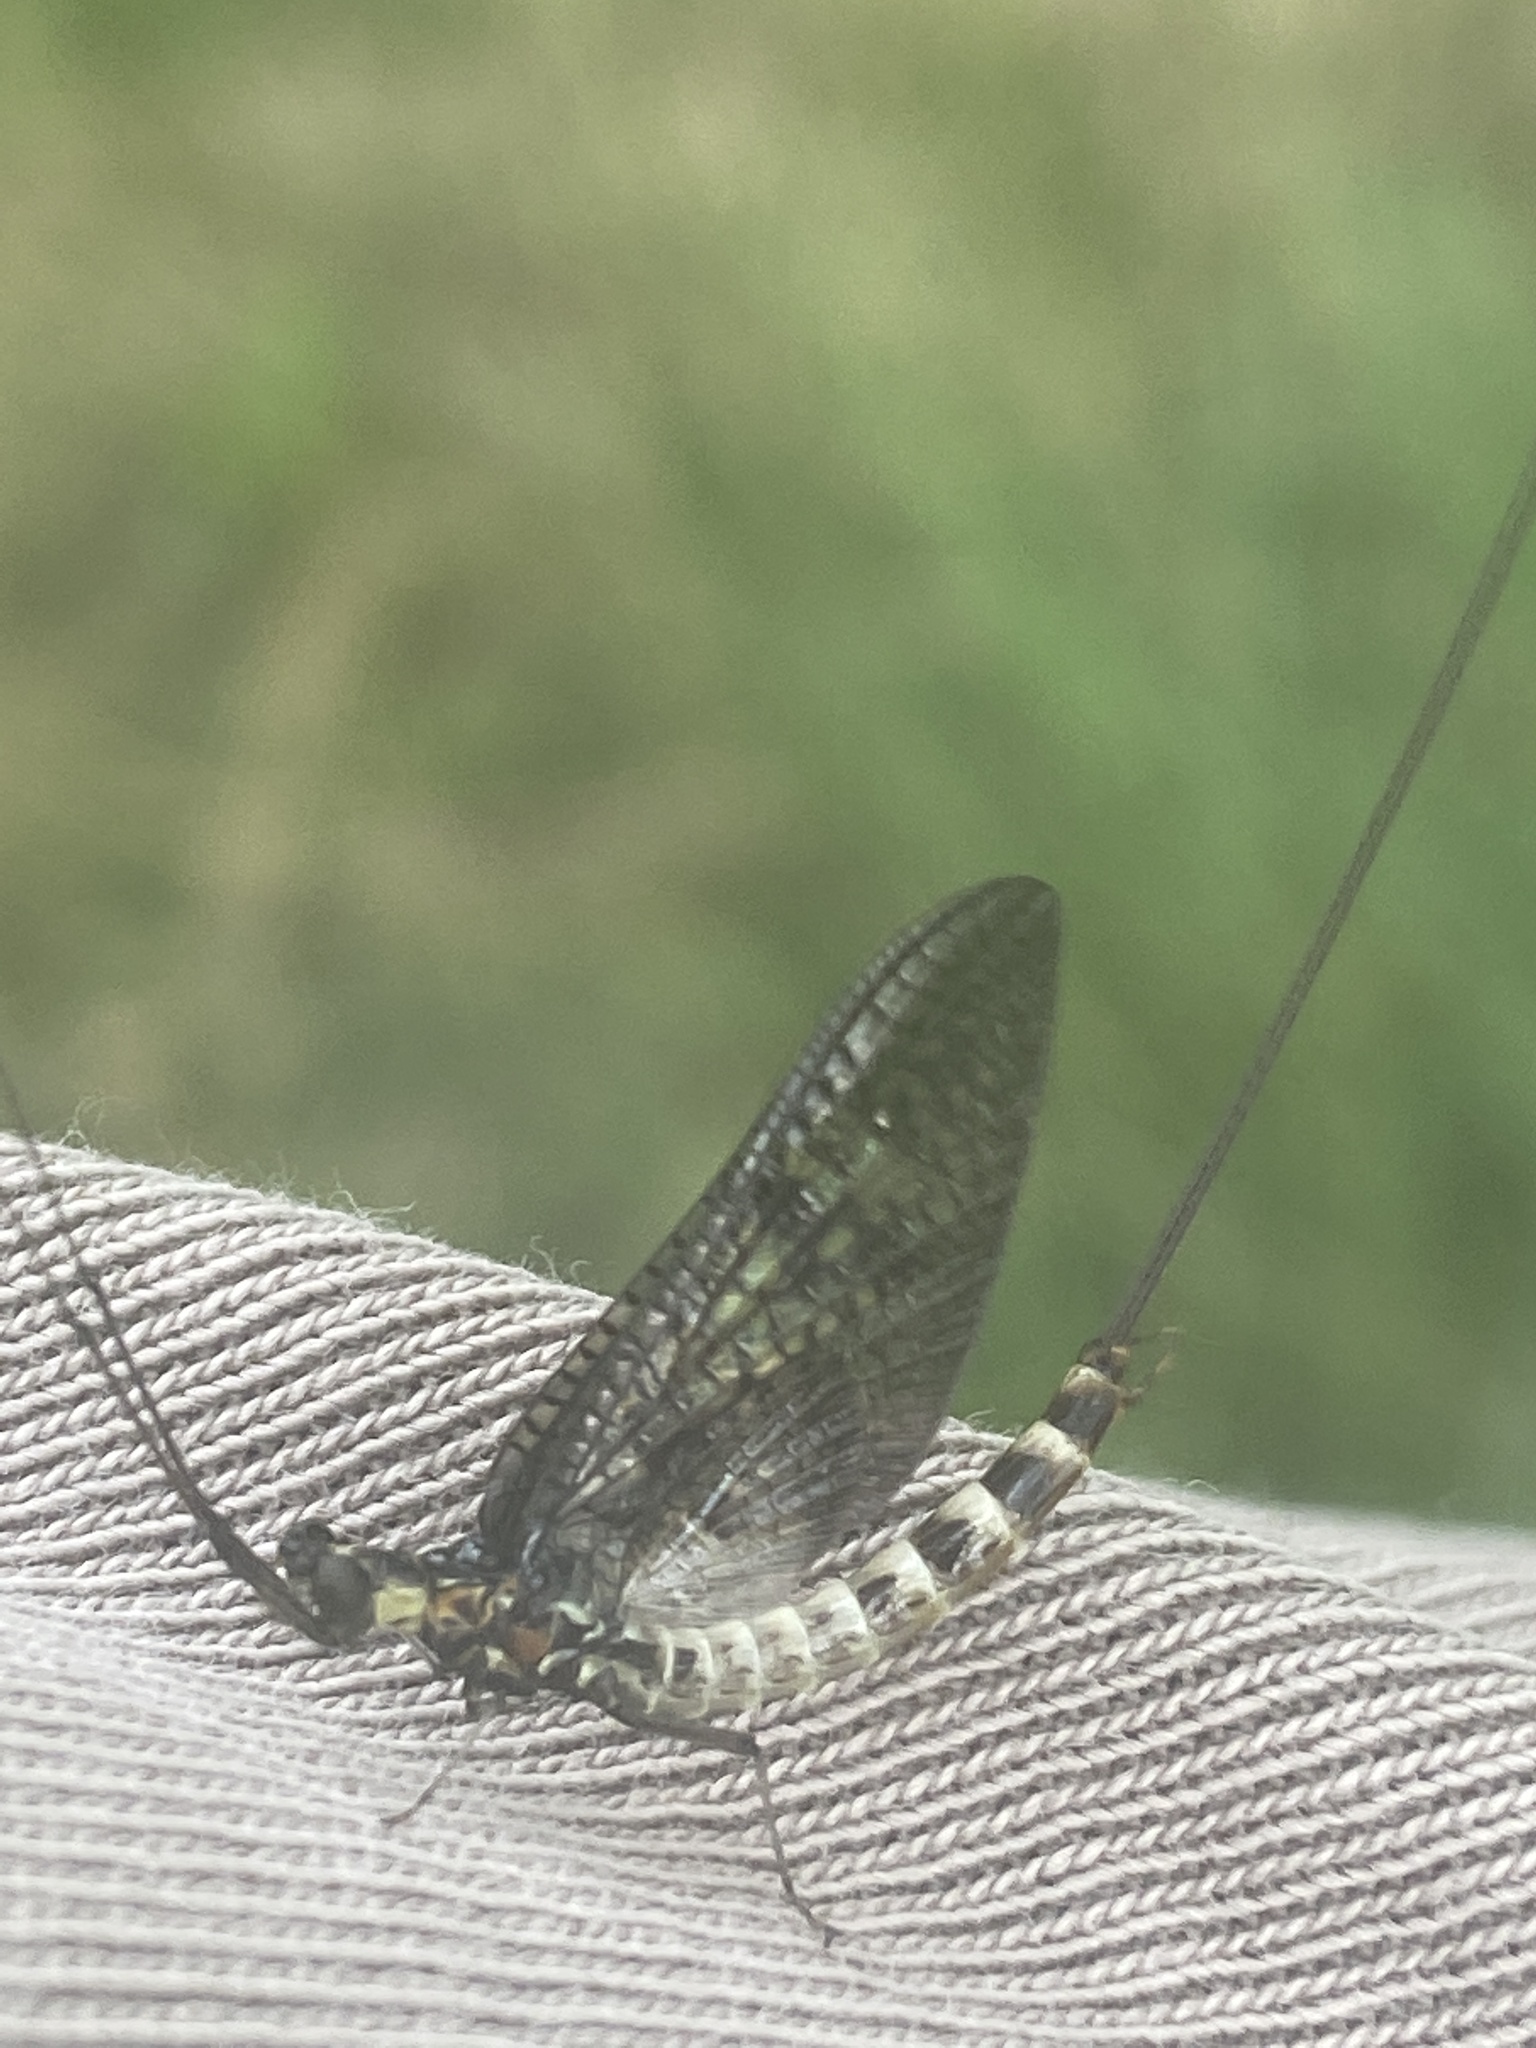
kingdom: Animalia
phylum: Arthropoda
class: Insecta
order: Ephemeroptera
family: Ephemeridae
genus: Ephemera
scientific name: Ephemera danica
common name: Green dun
